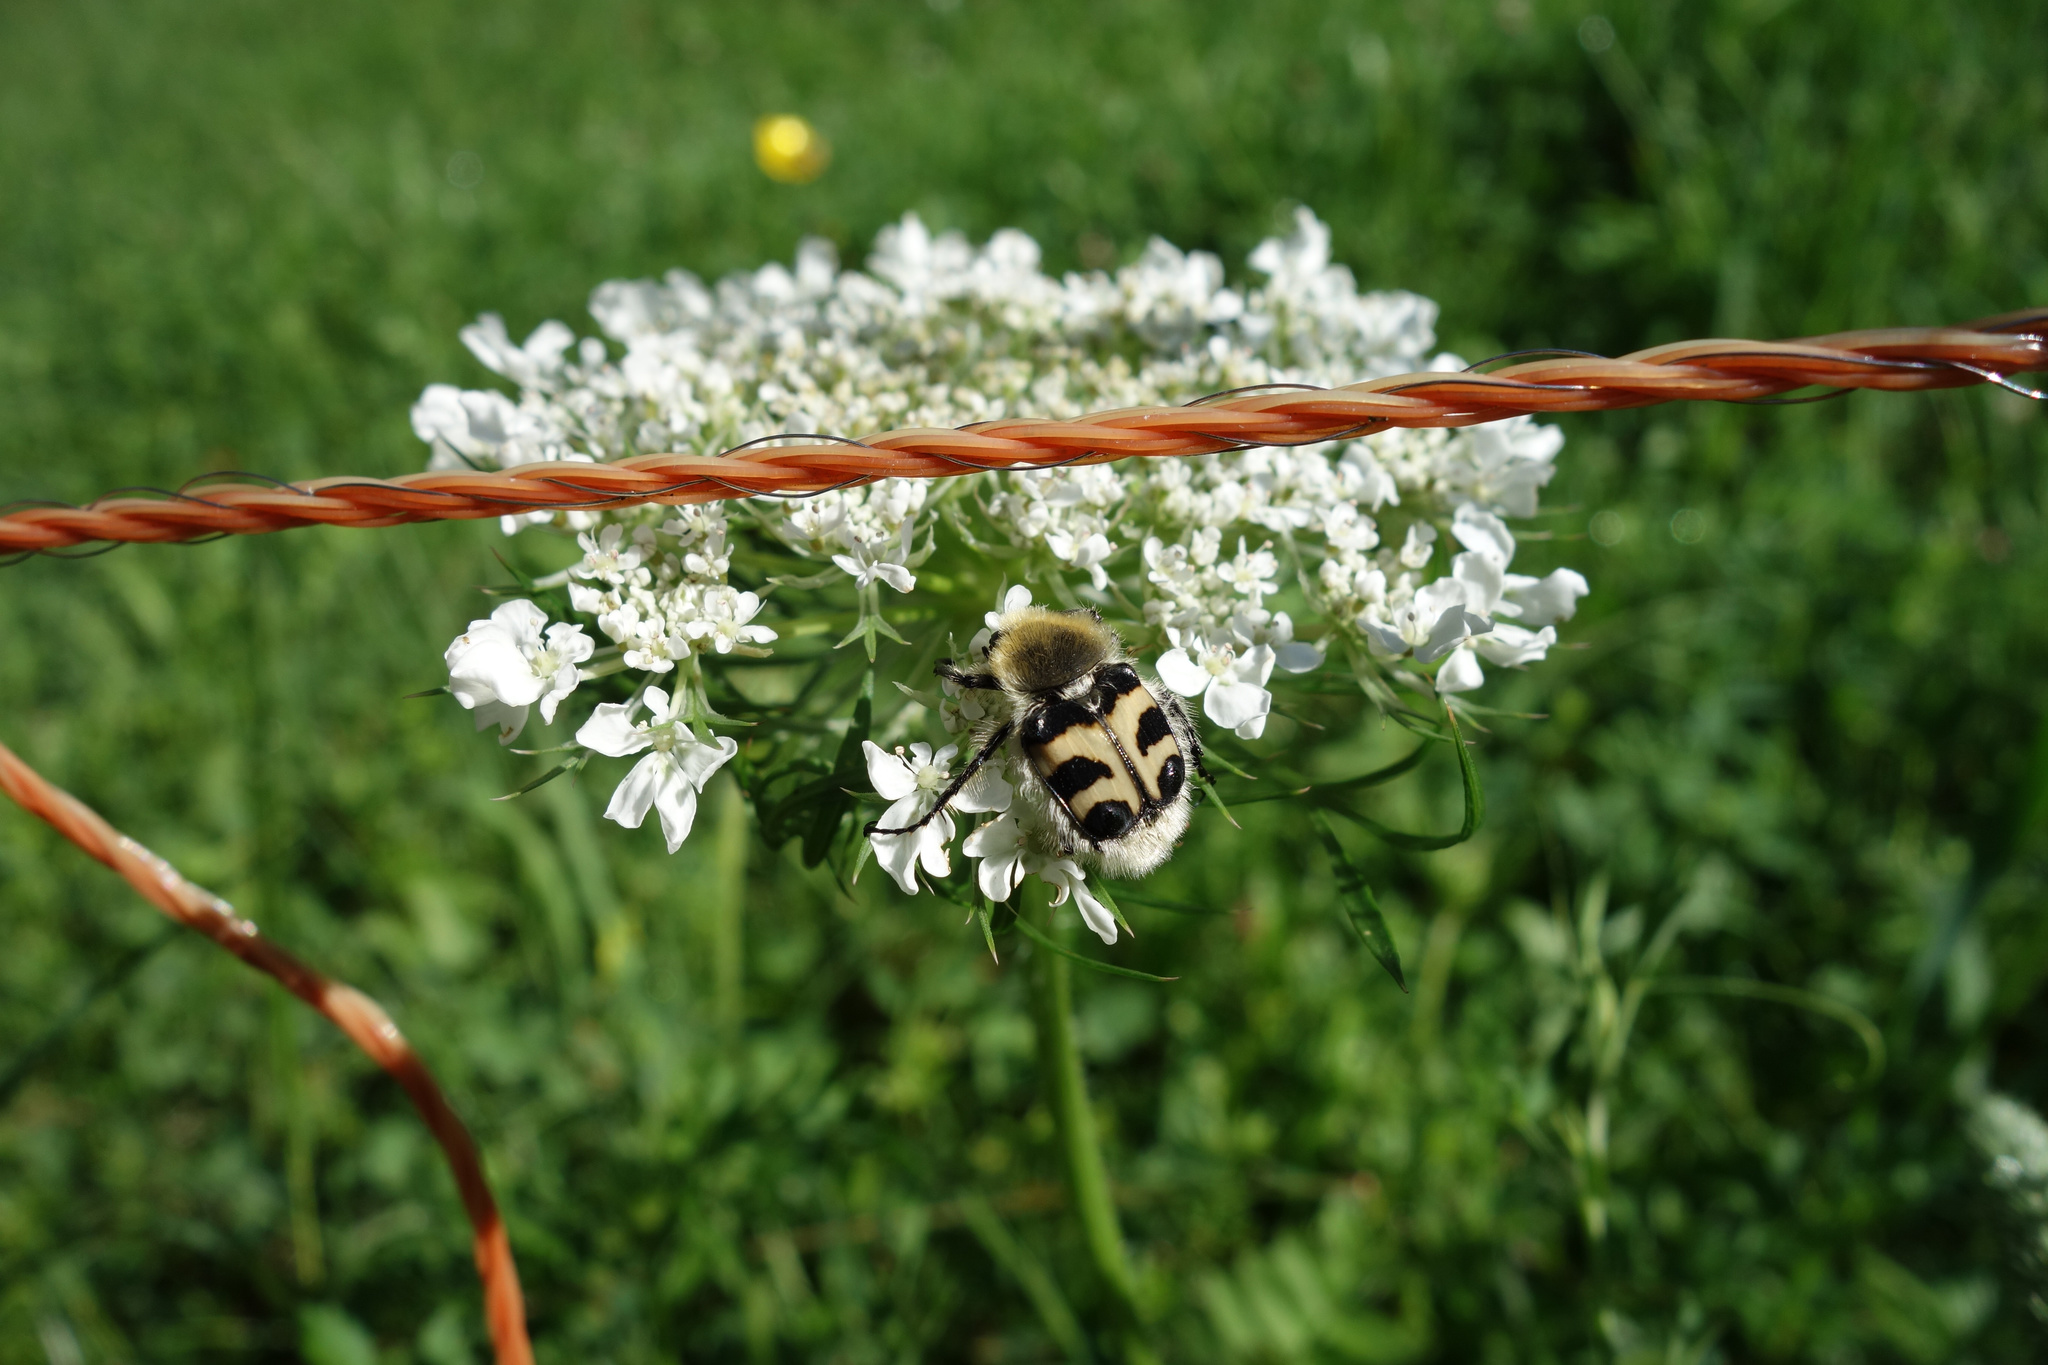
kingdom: Animalia
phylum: Arthropoda
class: Insecta
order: Coleoptera
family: Scarabaeidae
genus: Trichius
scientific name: Trichius fasciatus
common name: Bee beetle
